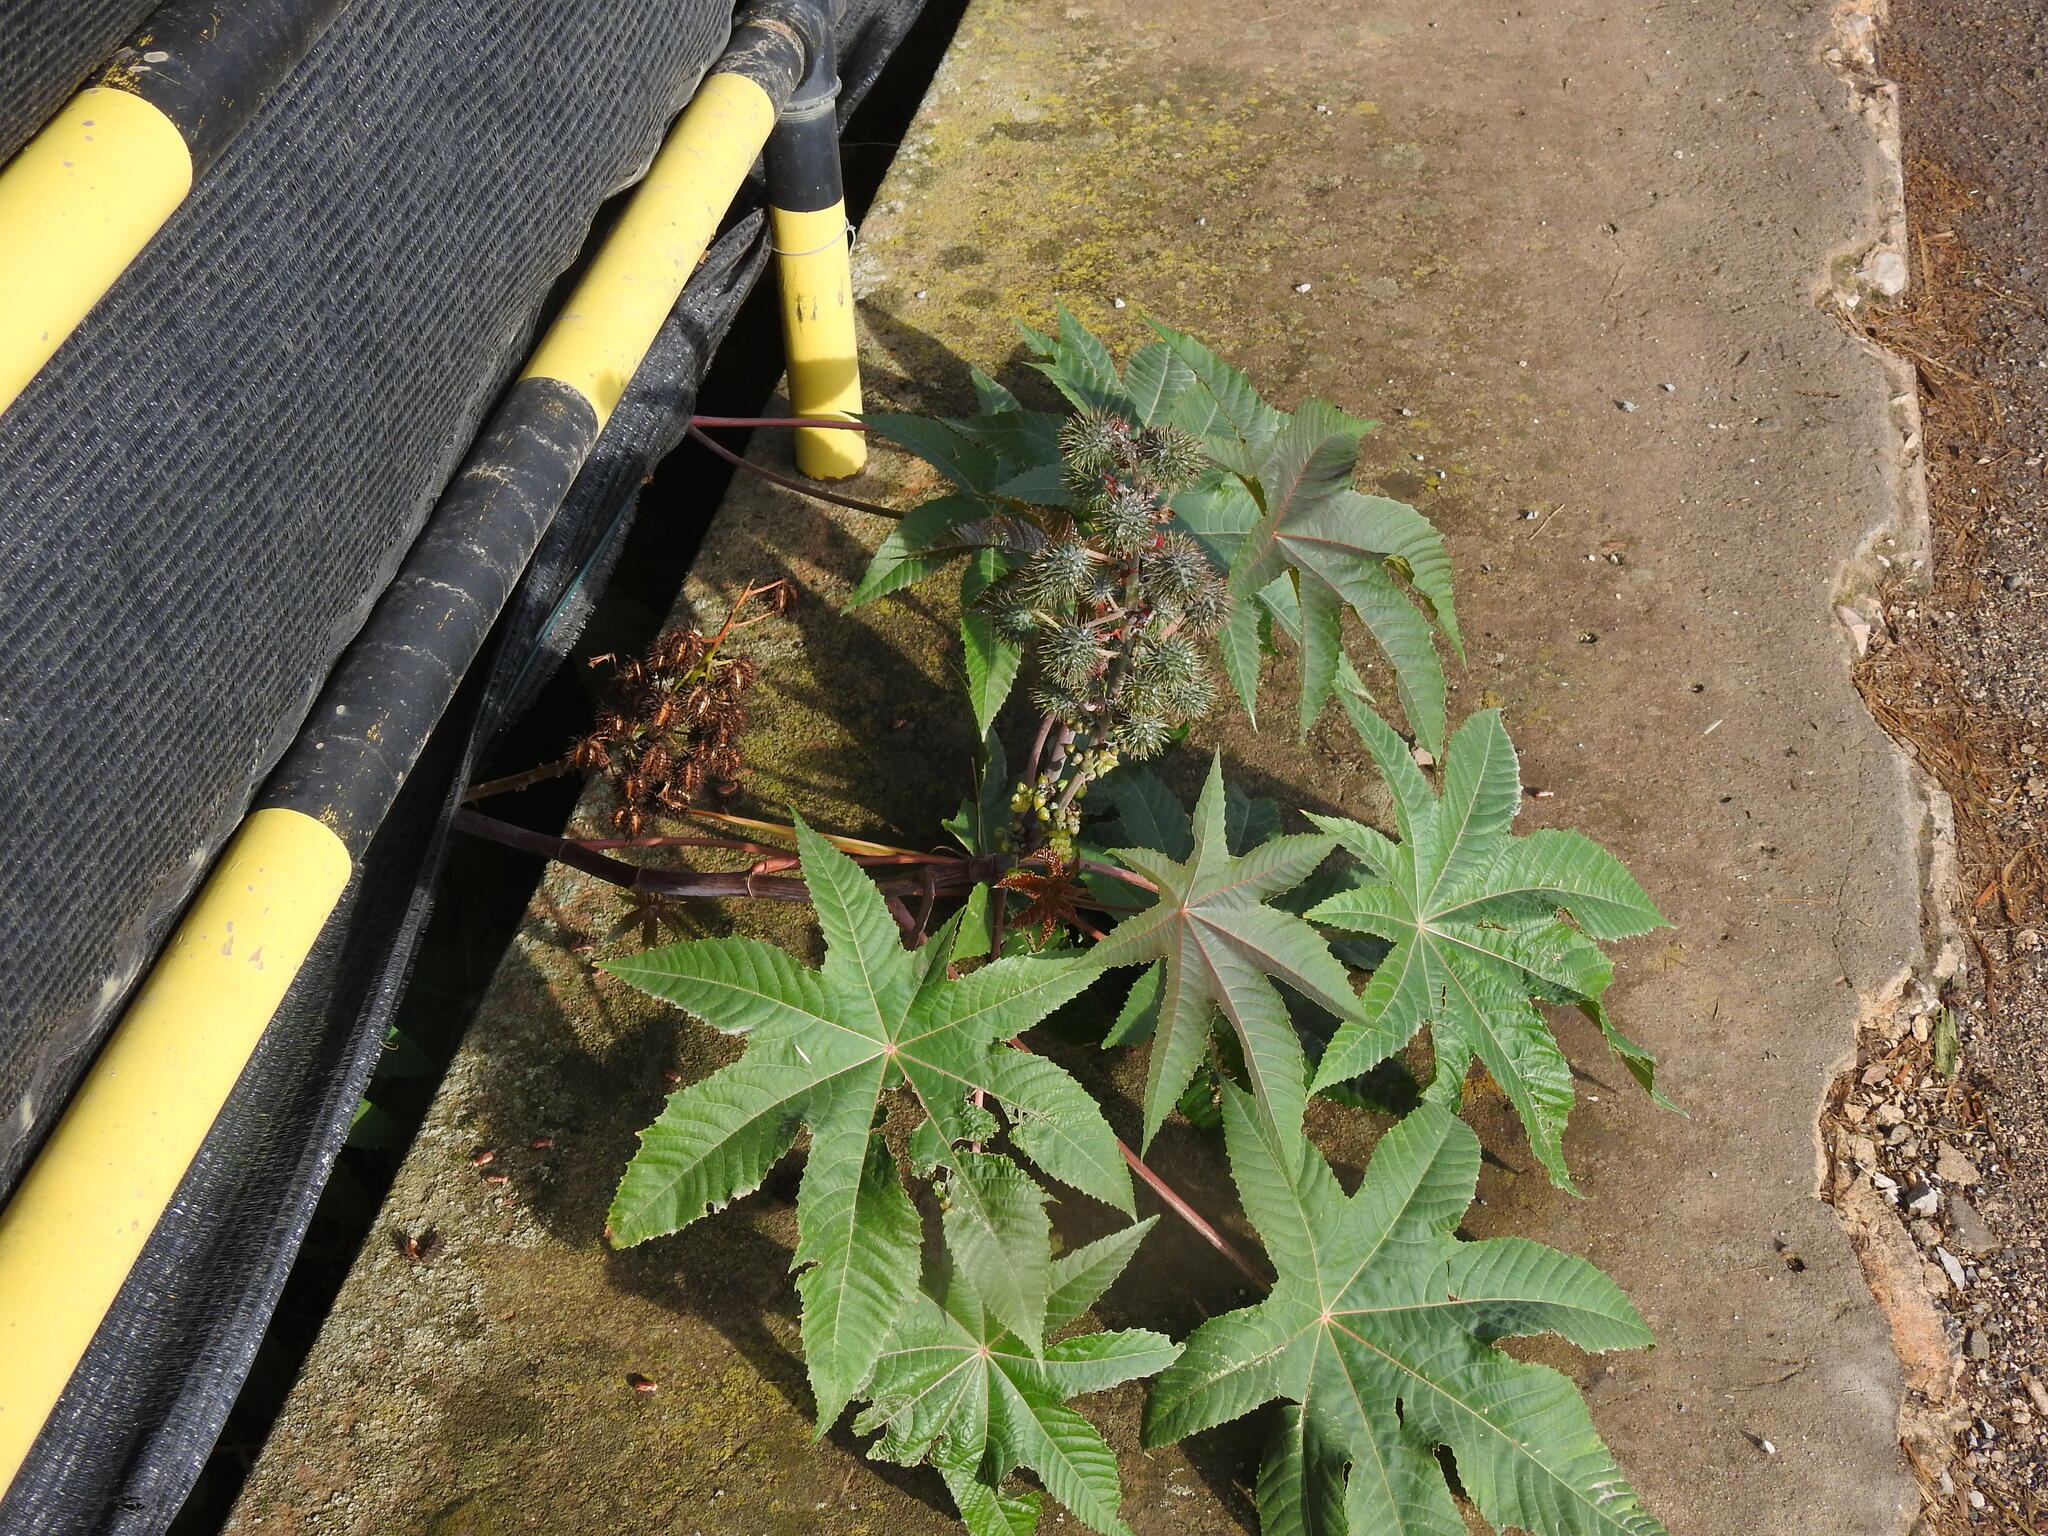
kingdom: Plantae
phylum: Tracheophyta
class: Magnoliopsida
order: Malpighiales
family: Euphorbiaceae
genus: Ricinus
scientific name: Ricinus communis
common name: Castor-oil-plant
